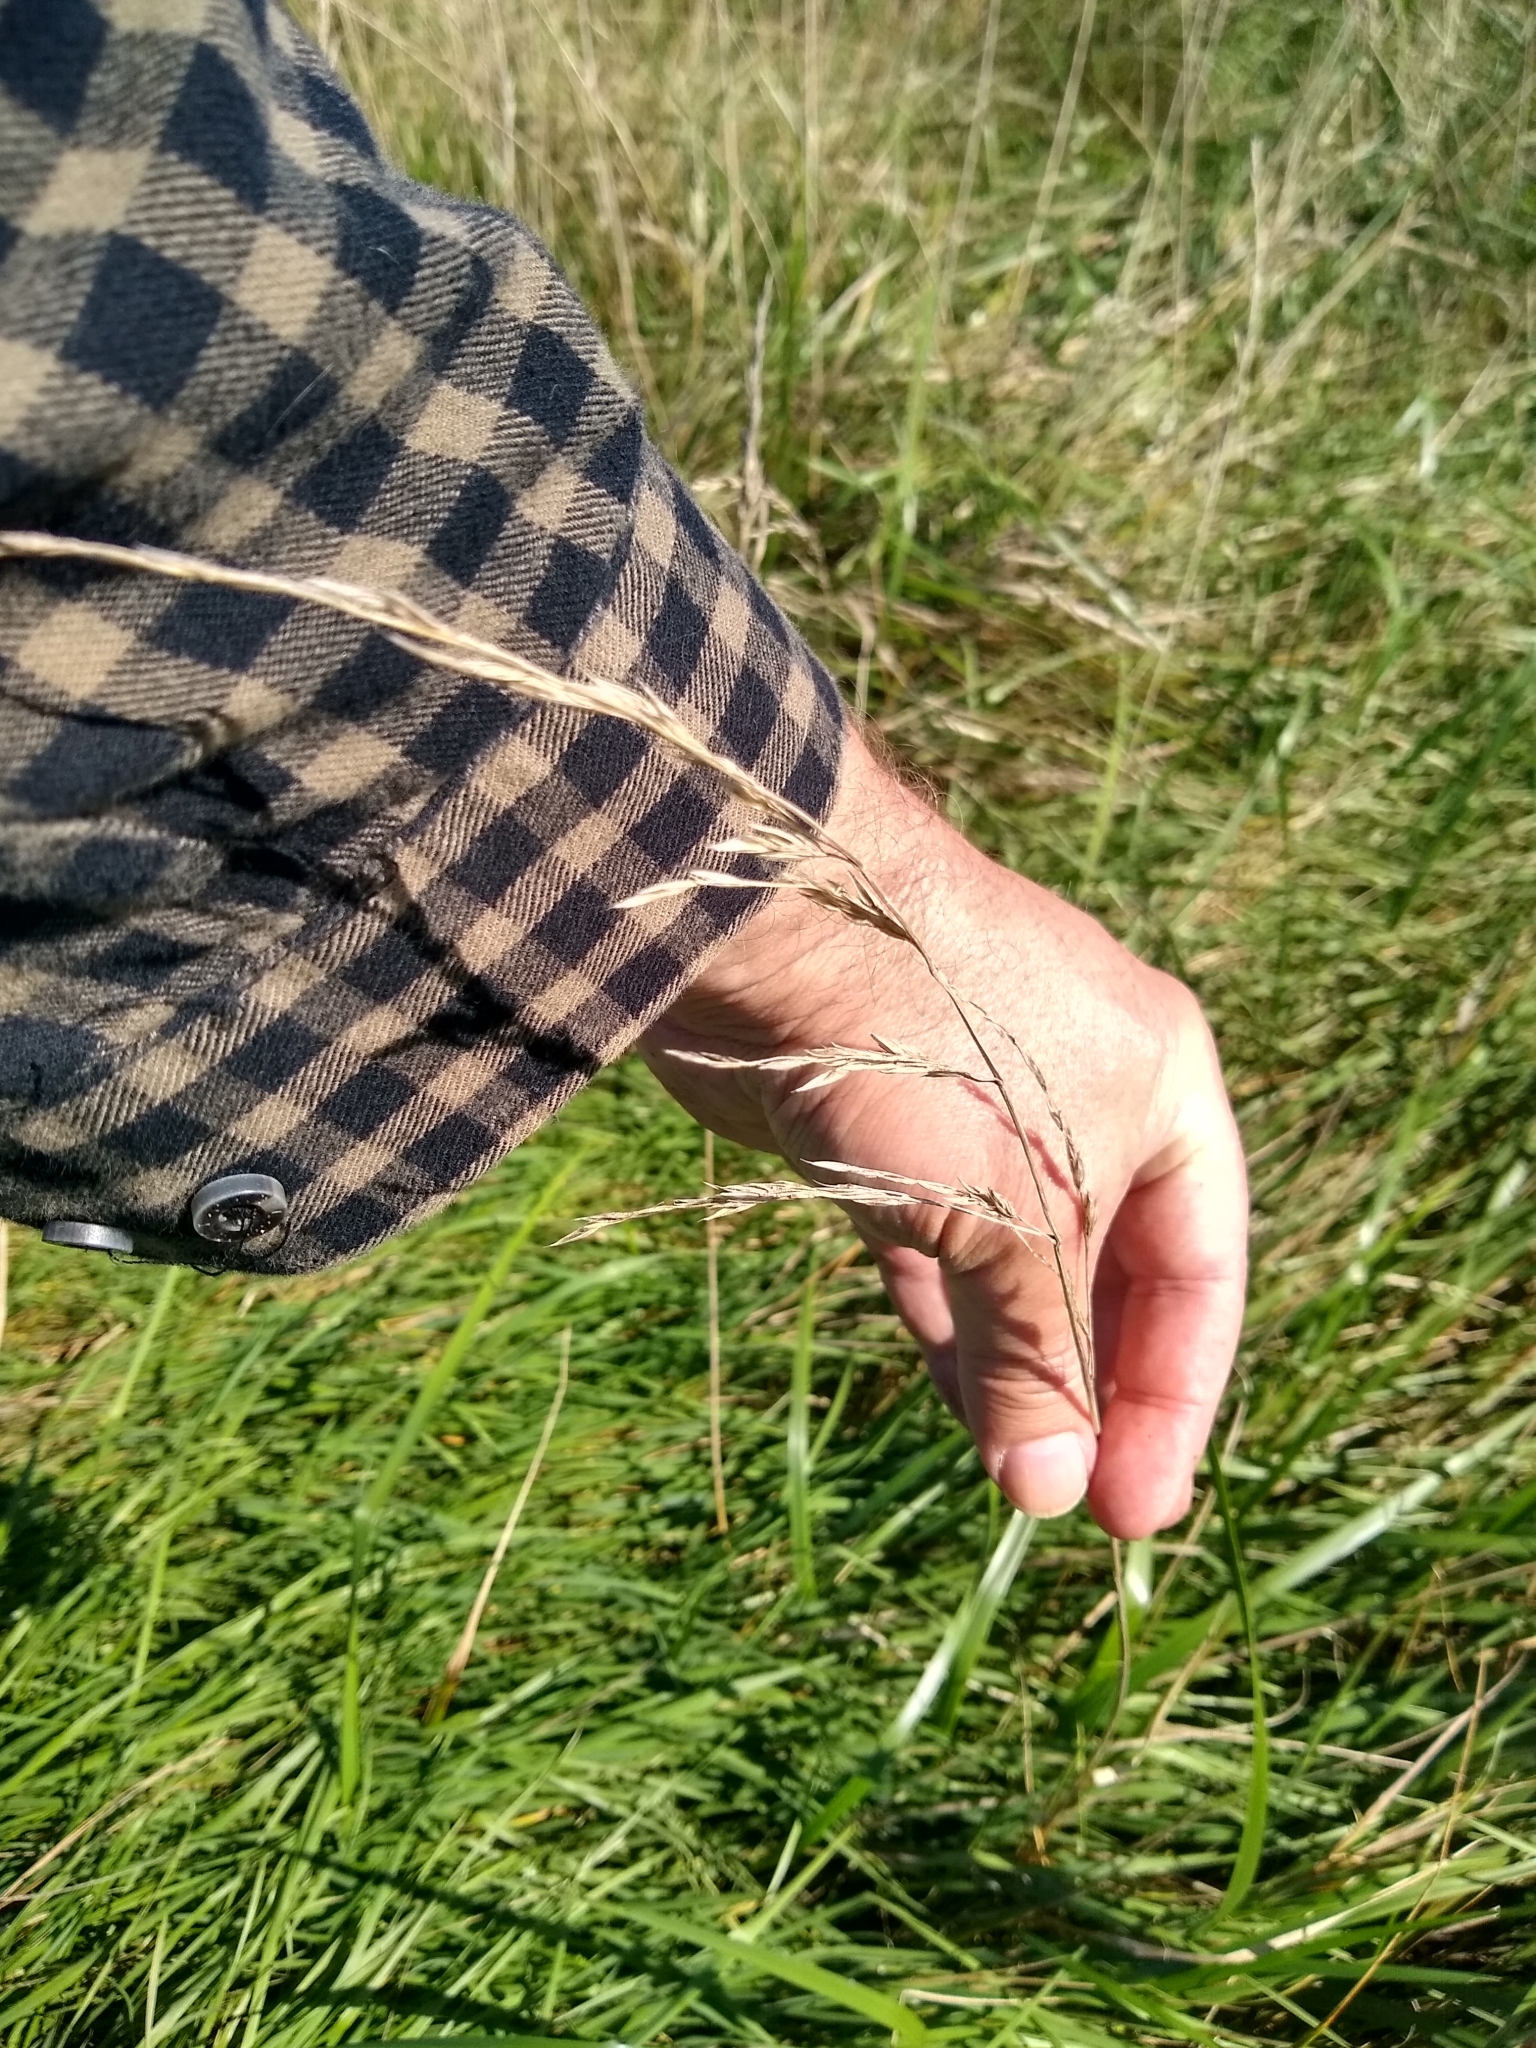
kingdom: Plantae
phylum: Tracheophyta
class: Liliopsida
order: Poales
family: Poaceae
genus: Lolium
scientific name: Lolium arundinaceum
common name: Reed fescue
